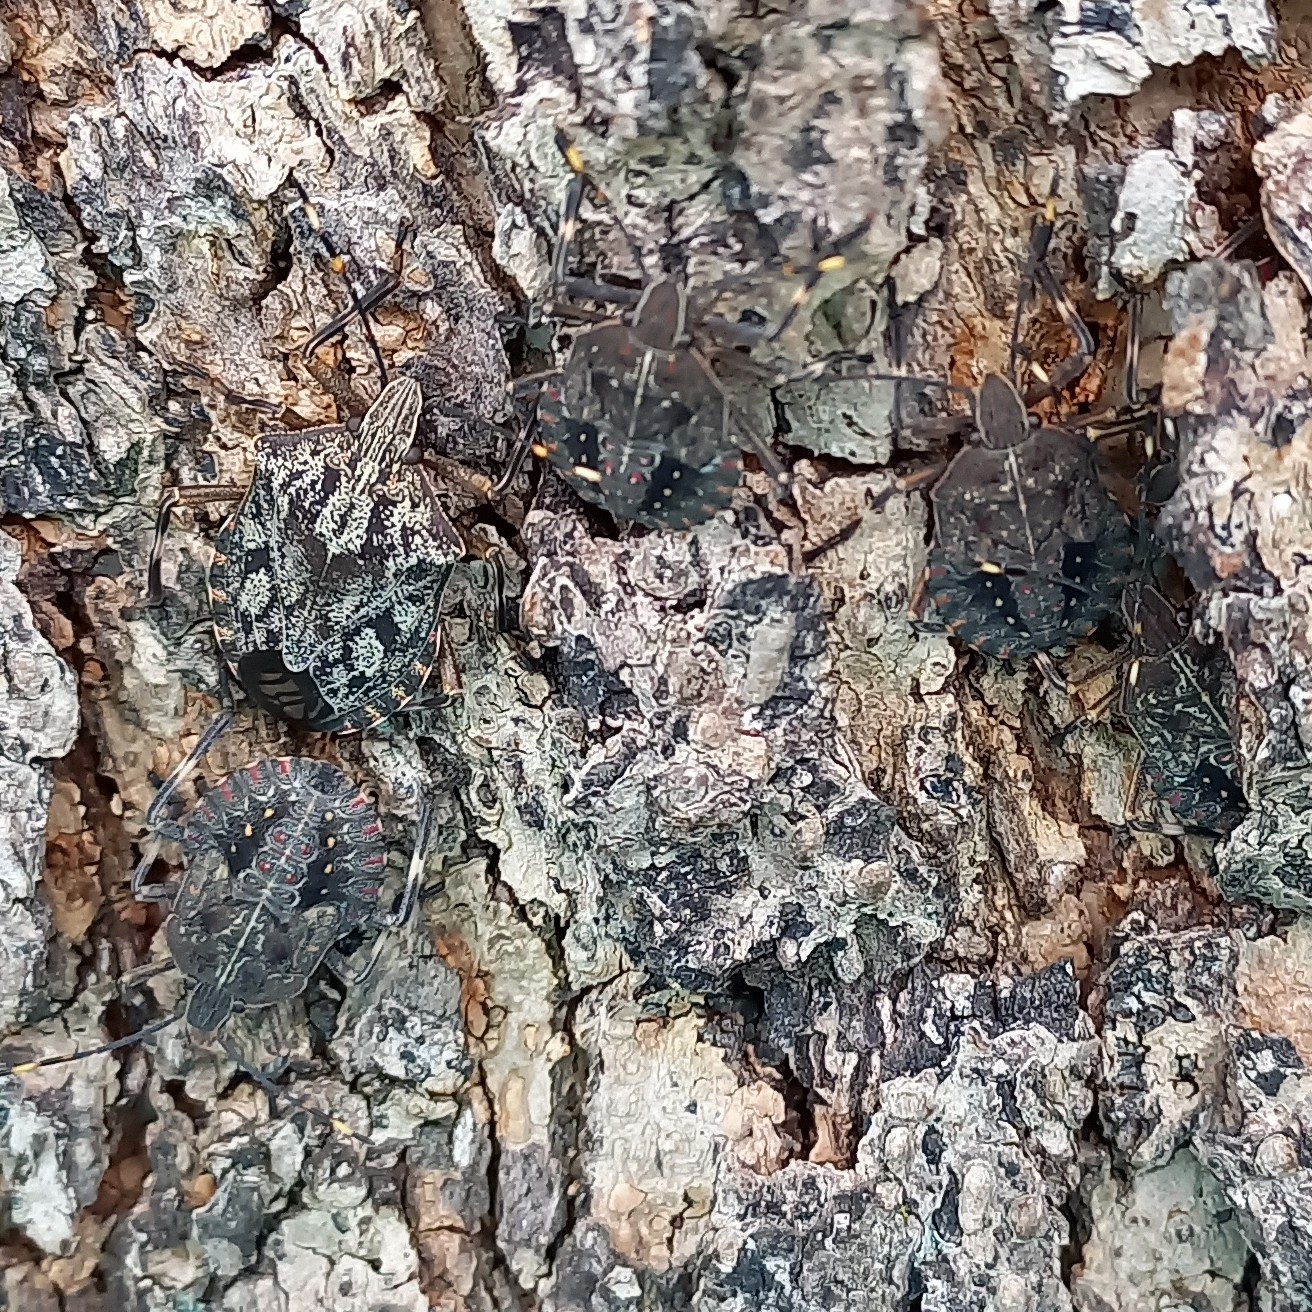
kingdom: Animalia
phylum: Arthropoda
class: Insecta
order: Hemiptera
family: Pentatomidae
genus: Coenomorpha
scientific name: Coenomorpha nervosa
